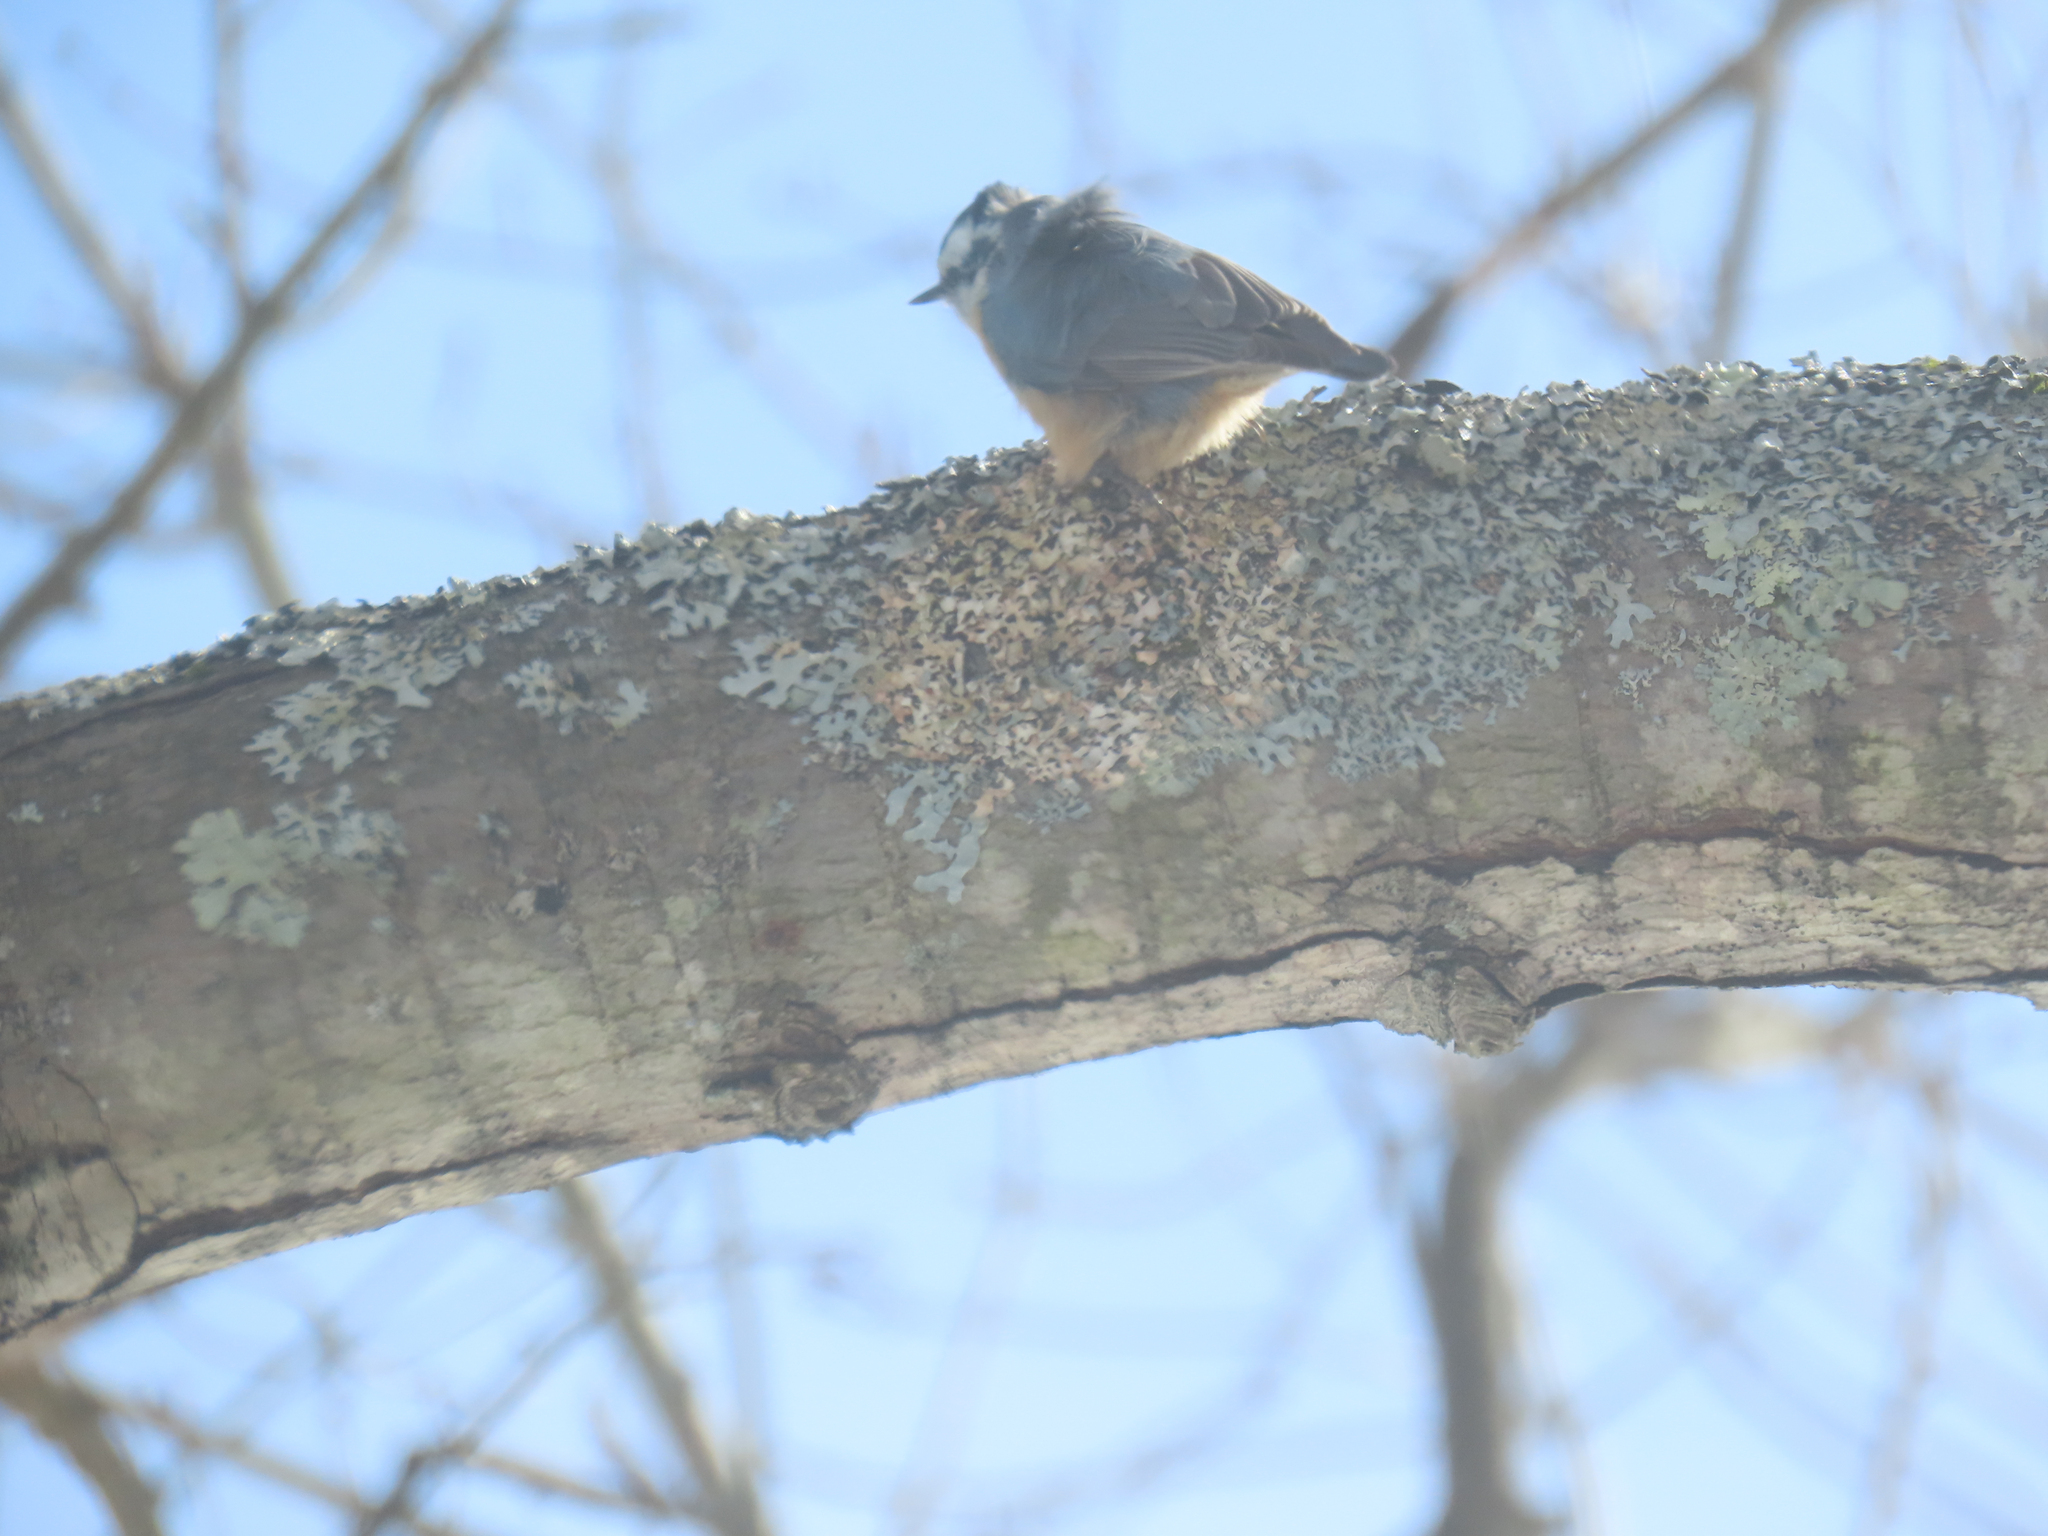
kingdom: Animalia
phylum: Chordata
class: Aves
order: Passeriformes
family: Sittidae
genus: Sitta
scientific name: Sitta canadensis
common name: Red-breasted nuthatch
